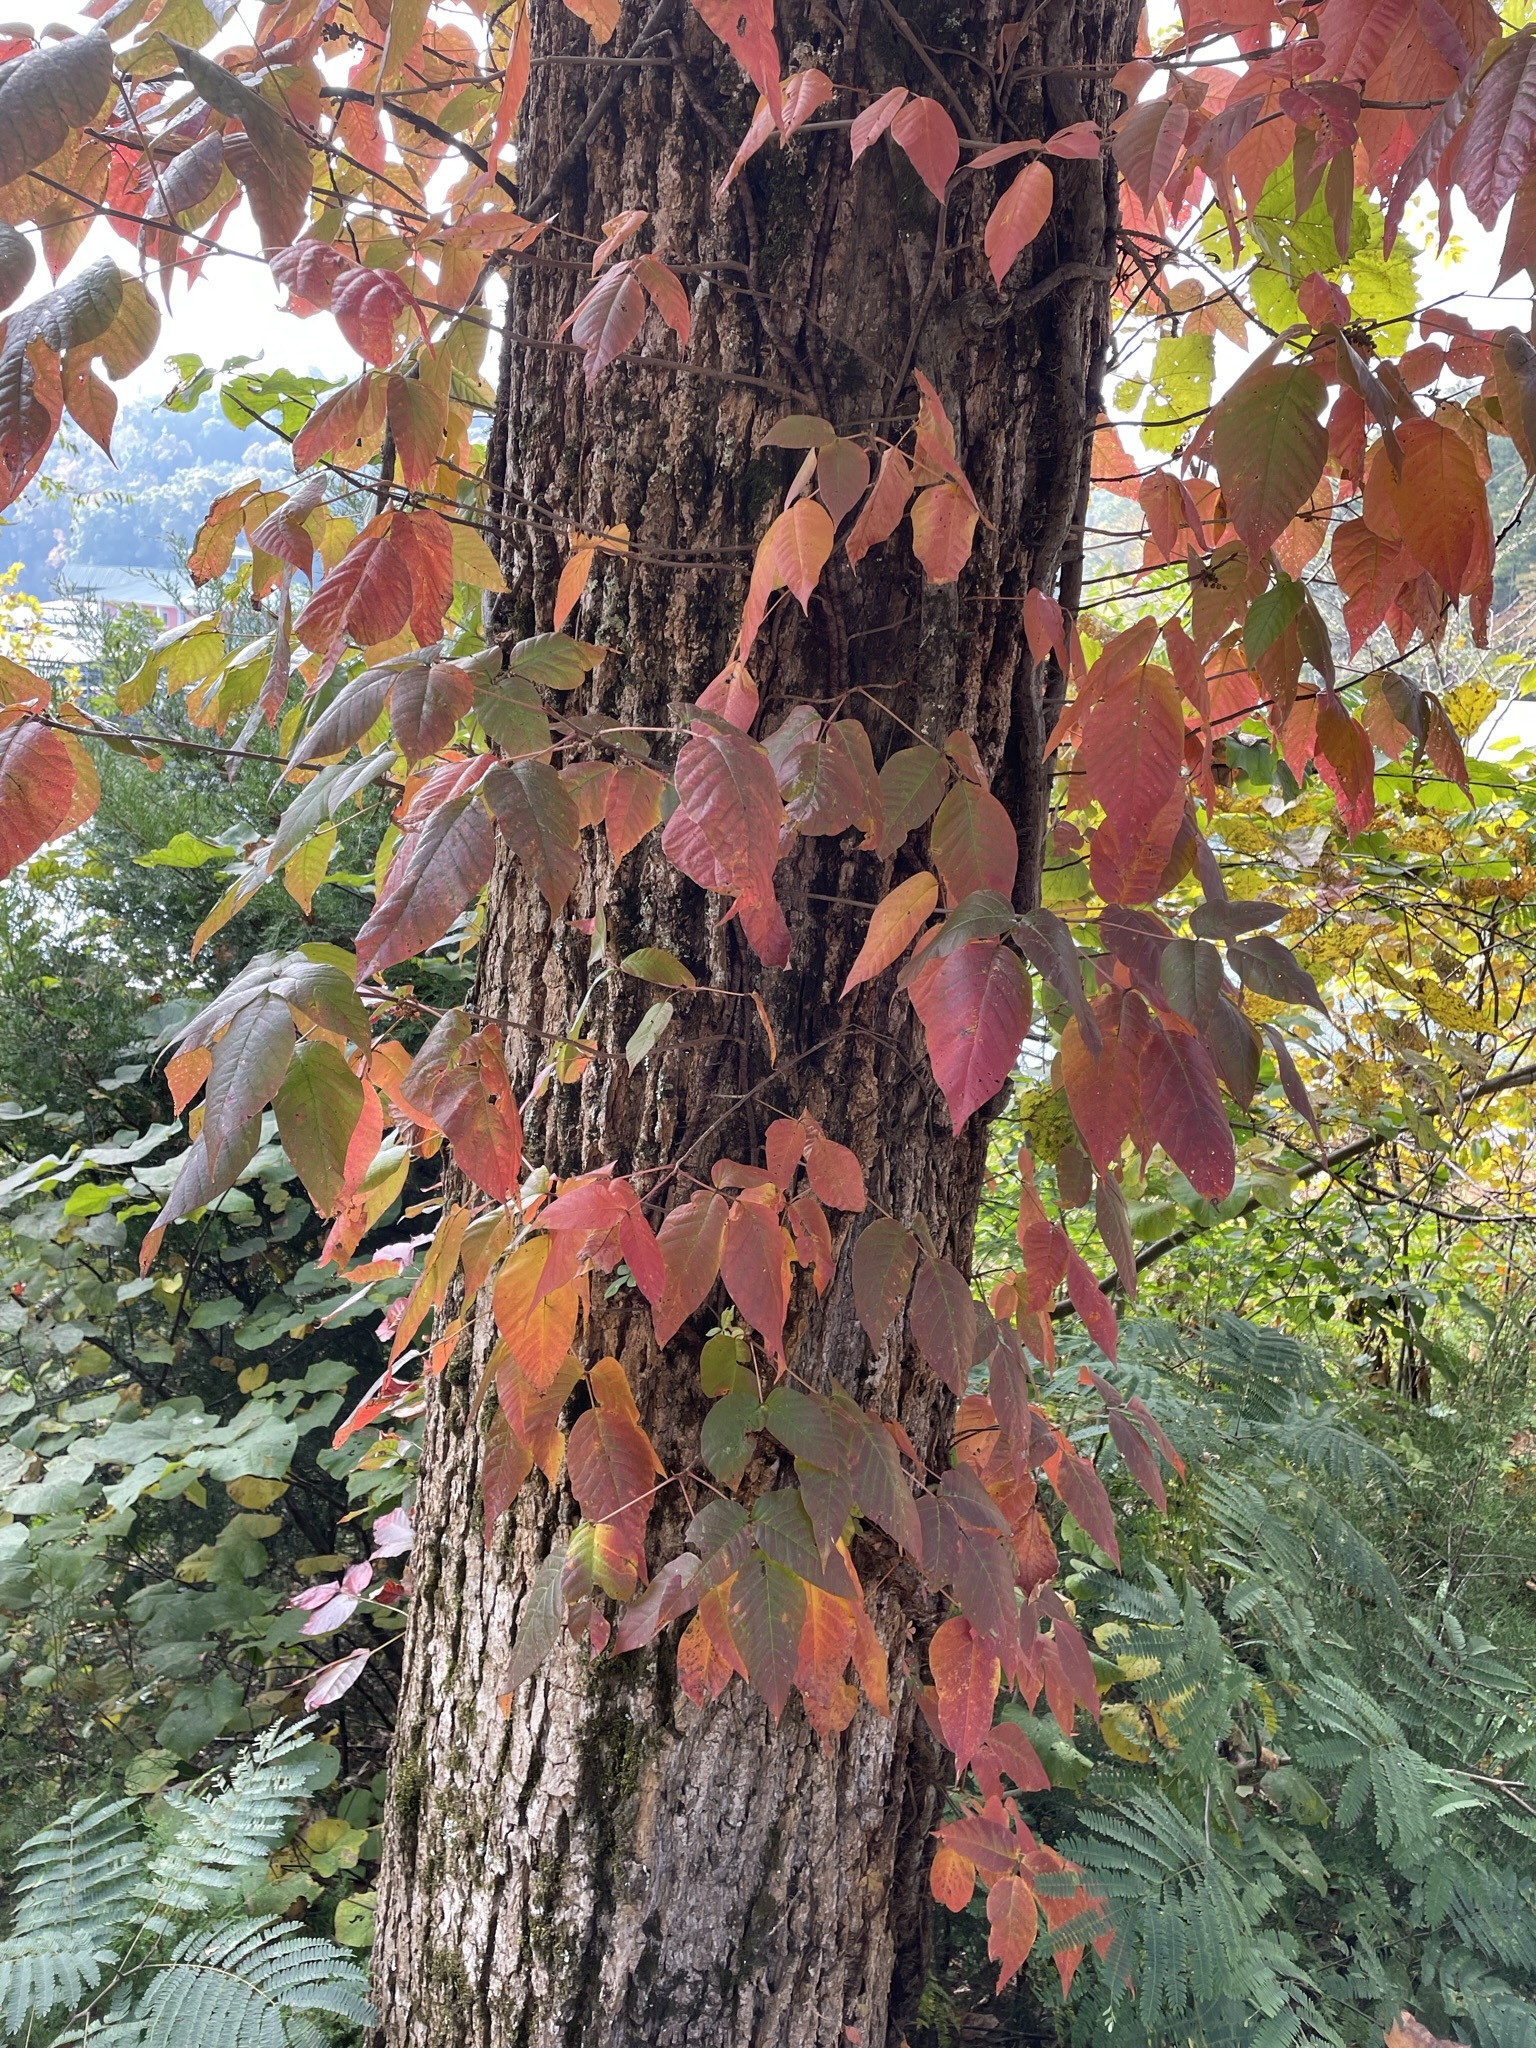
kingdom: Plantae
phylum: Tracheophyta
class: Magnoliopsida
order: Sapindales
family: Anacardiaceae
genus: Toxicodendron
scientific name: Toxicodendron radicans
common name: Poison ivy
